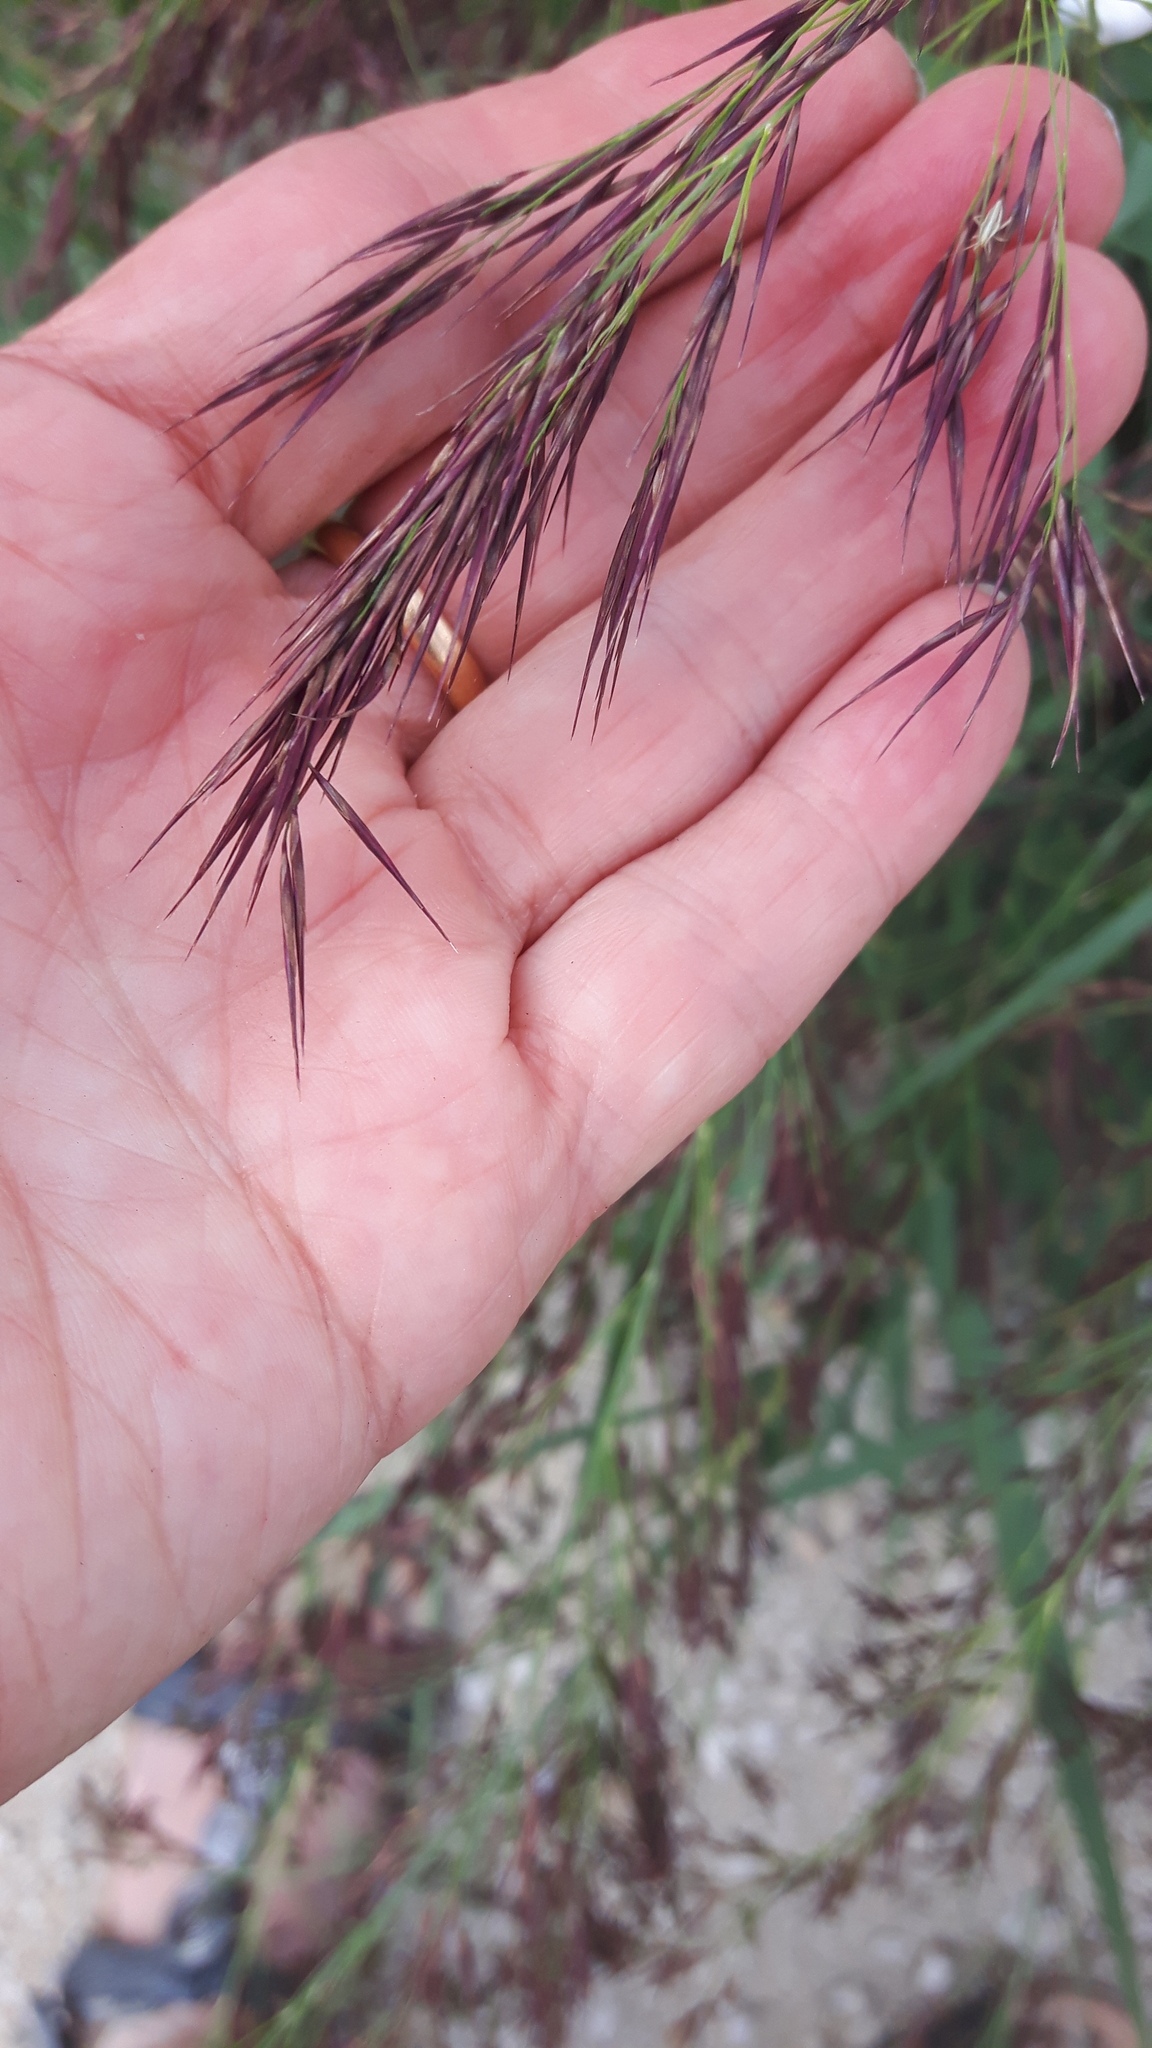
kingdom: Plantae
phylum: Tracheophyta
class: Liliopsida
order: Poales
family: Poaceae
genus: Phragmites
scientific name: Phragmites australis
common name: Common reed
